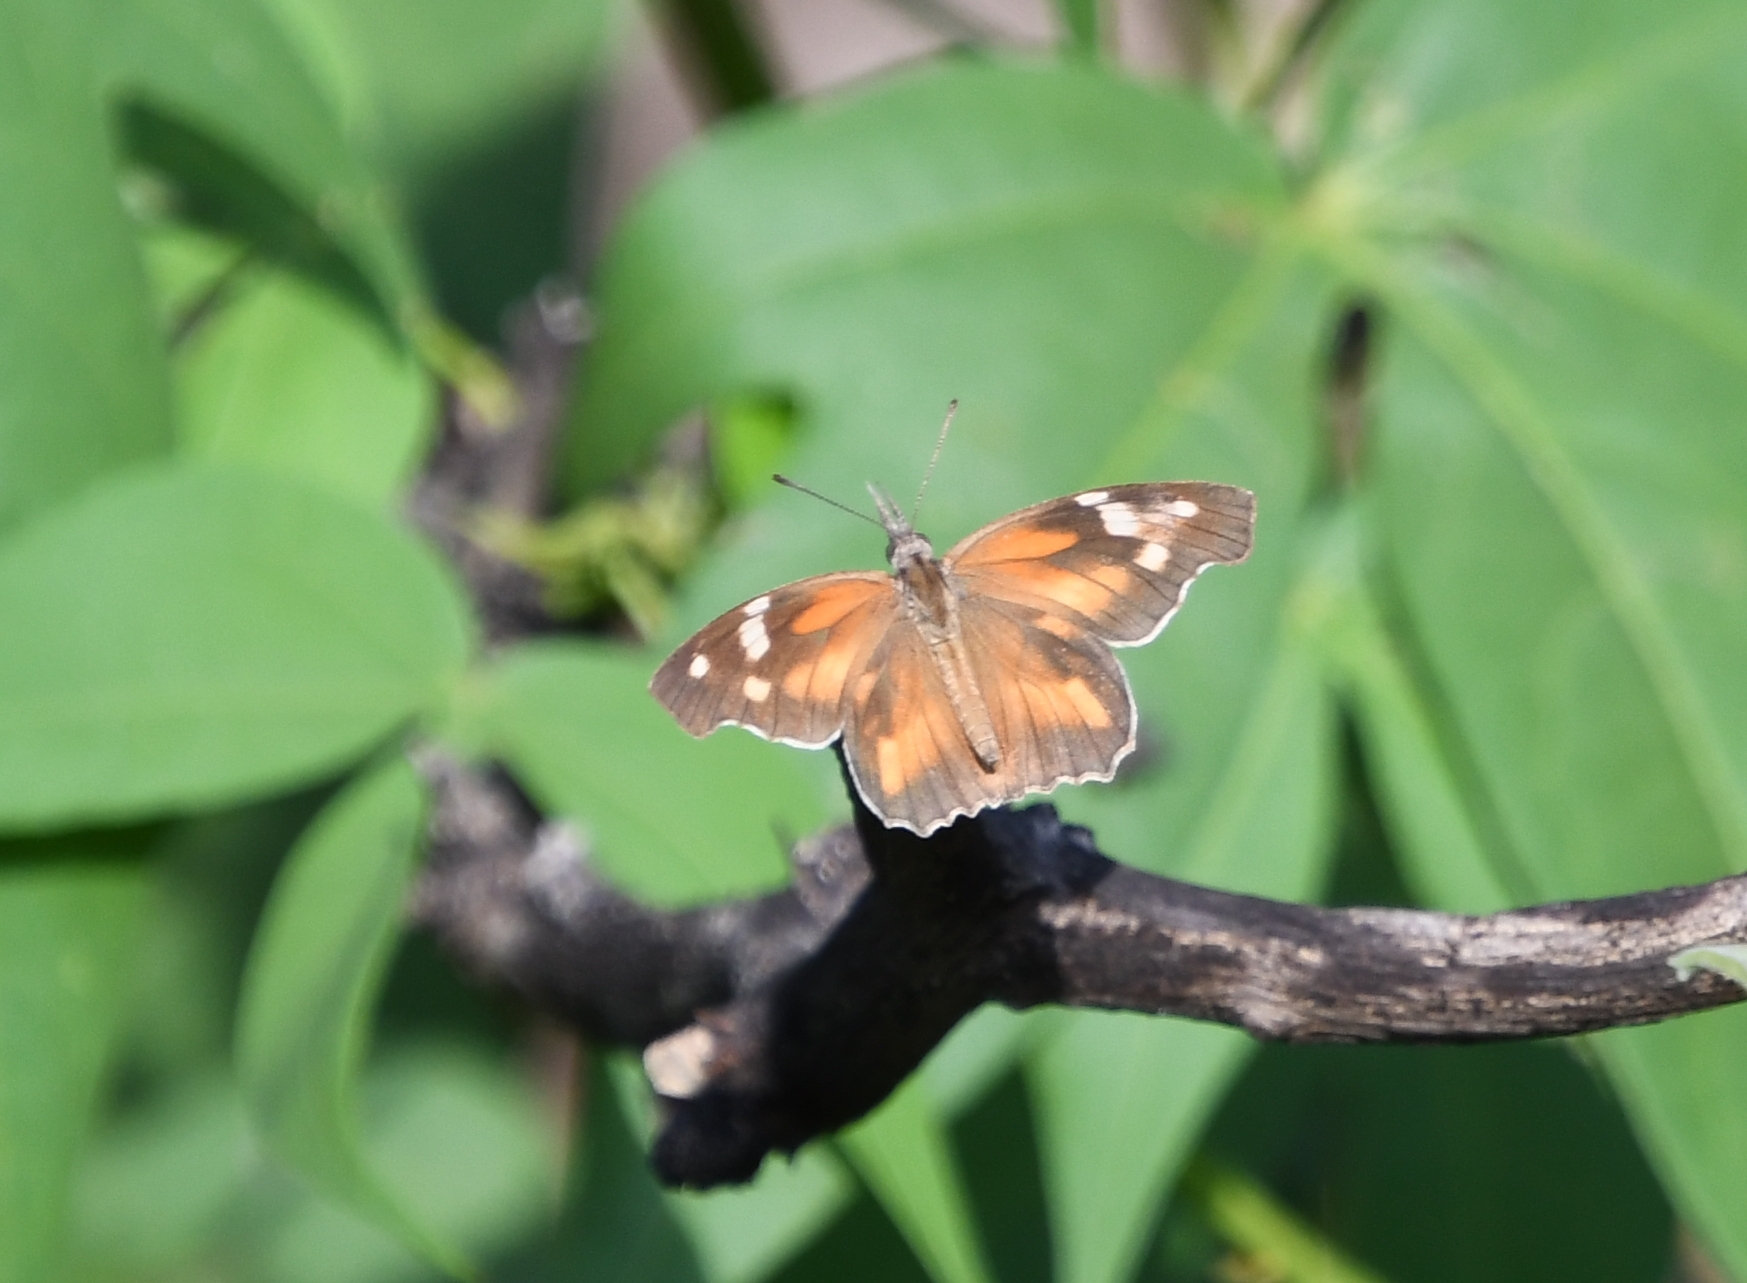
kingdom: Animalia
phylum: Arthropoda
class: Insecta
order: Lepidoptera
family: Nymphalidae
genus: Libytheana
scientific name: Libytheana carinenta
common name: American snout
